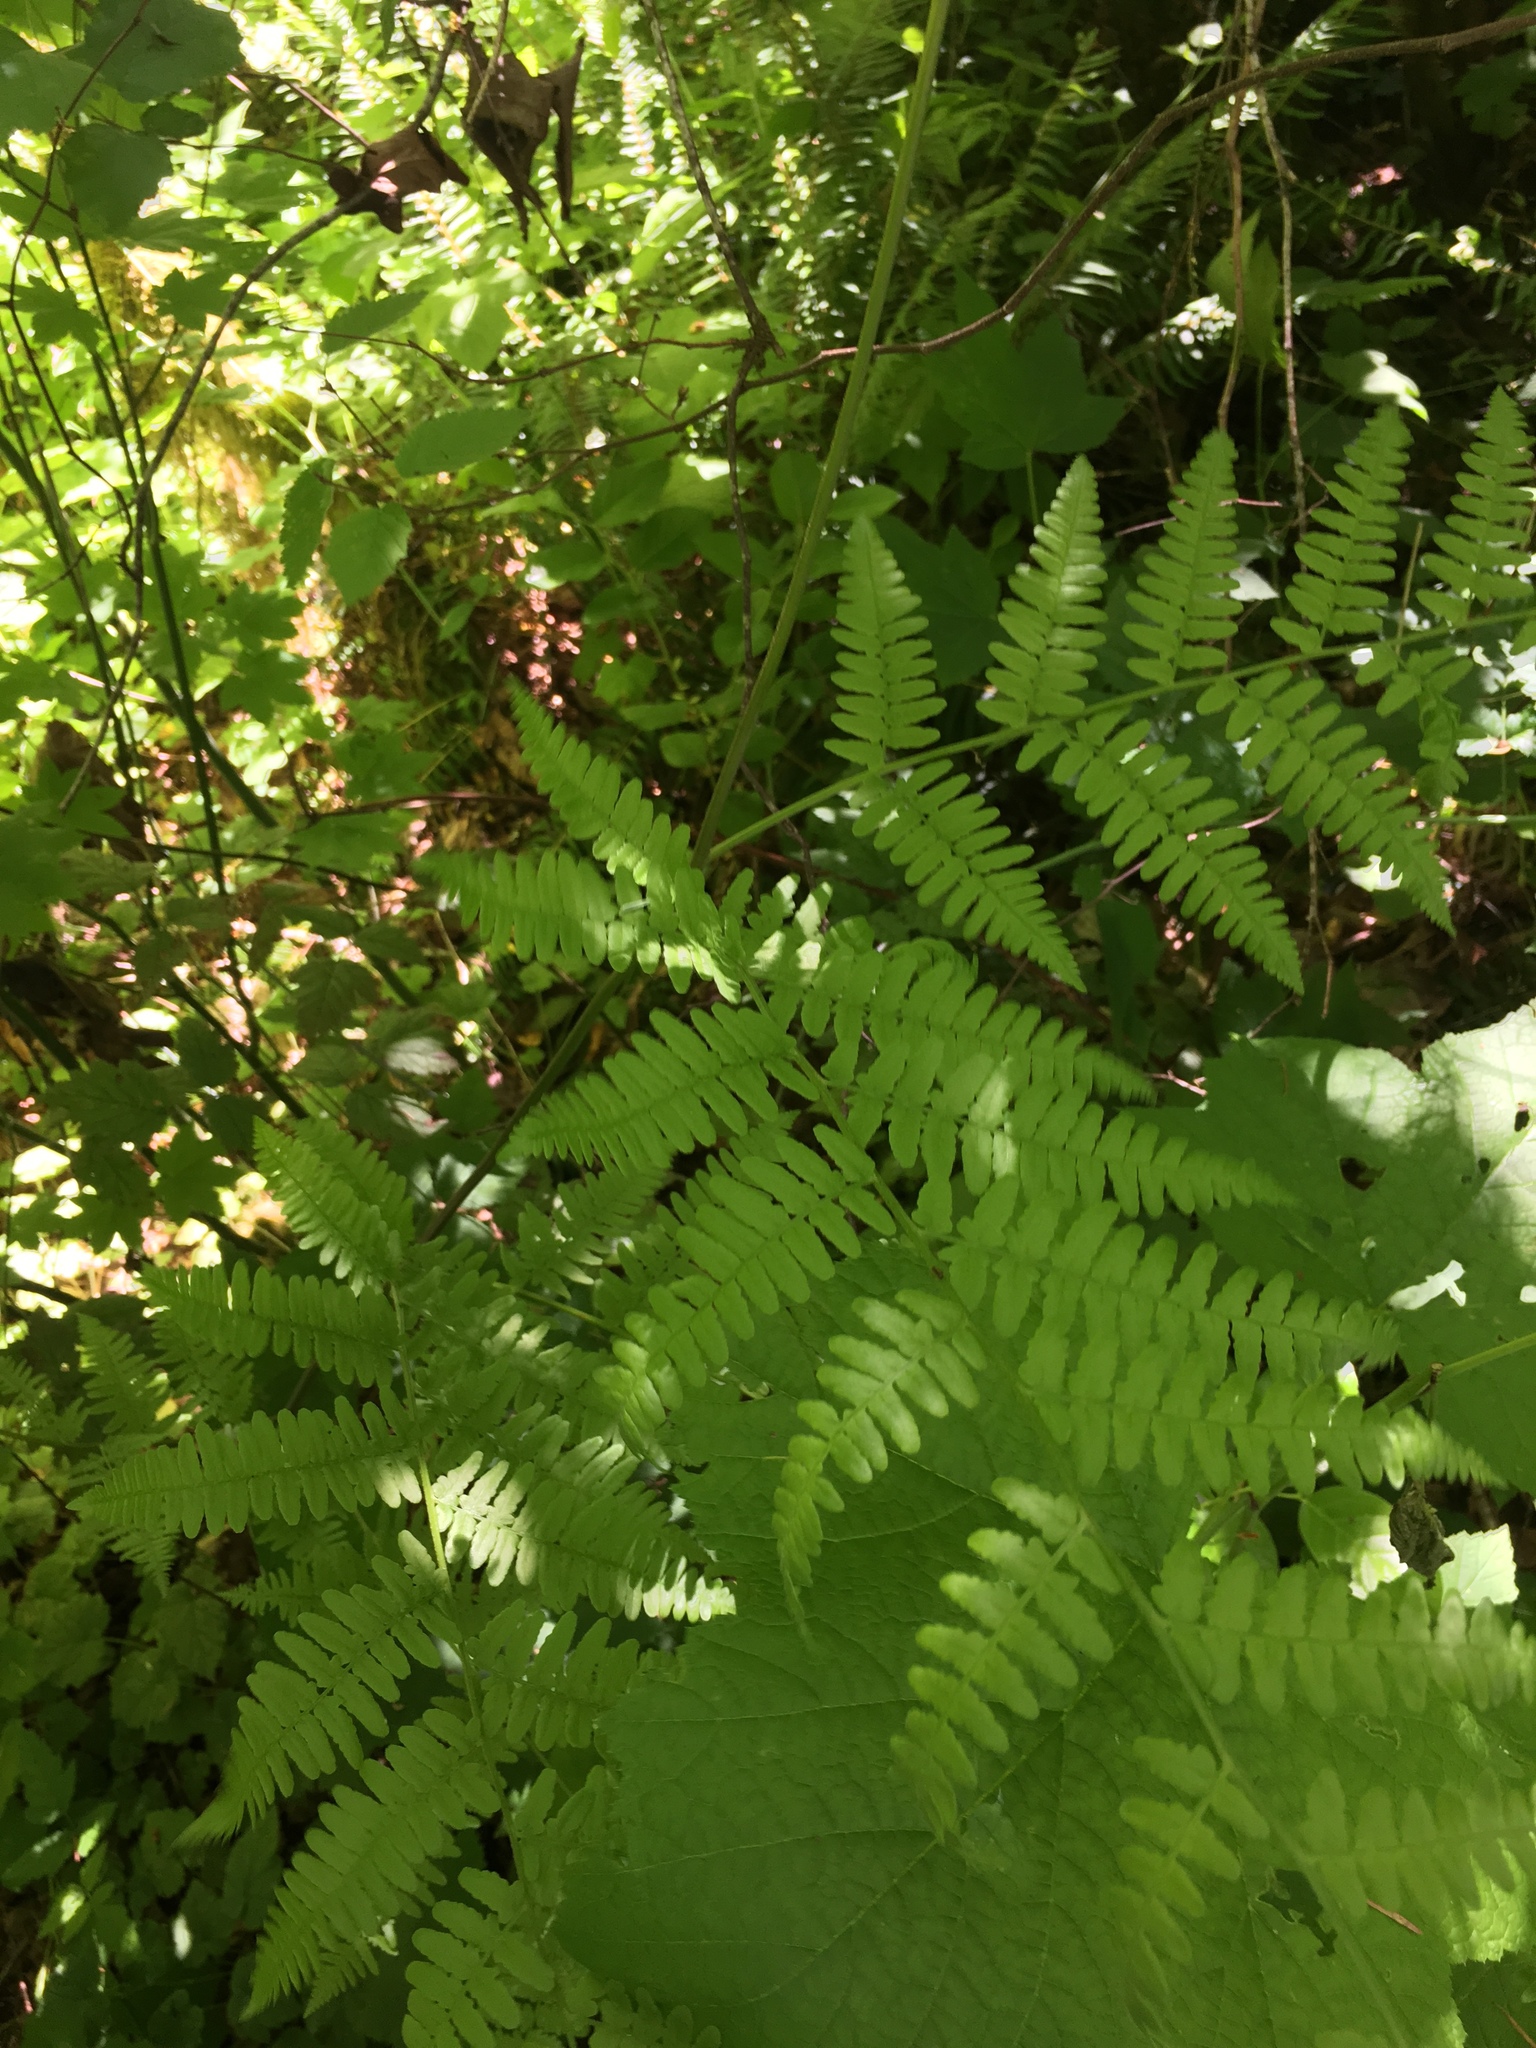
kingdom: Plantae
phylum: Tracheophyta
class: Polypodiopsida
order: Polypodiales
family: Dennstaedtiaceae
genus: Pteridium
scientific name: Pteridium aquilinum
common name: Bracken
